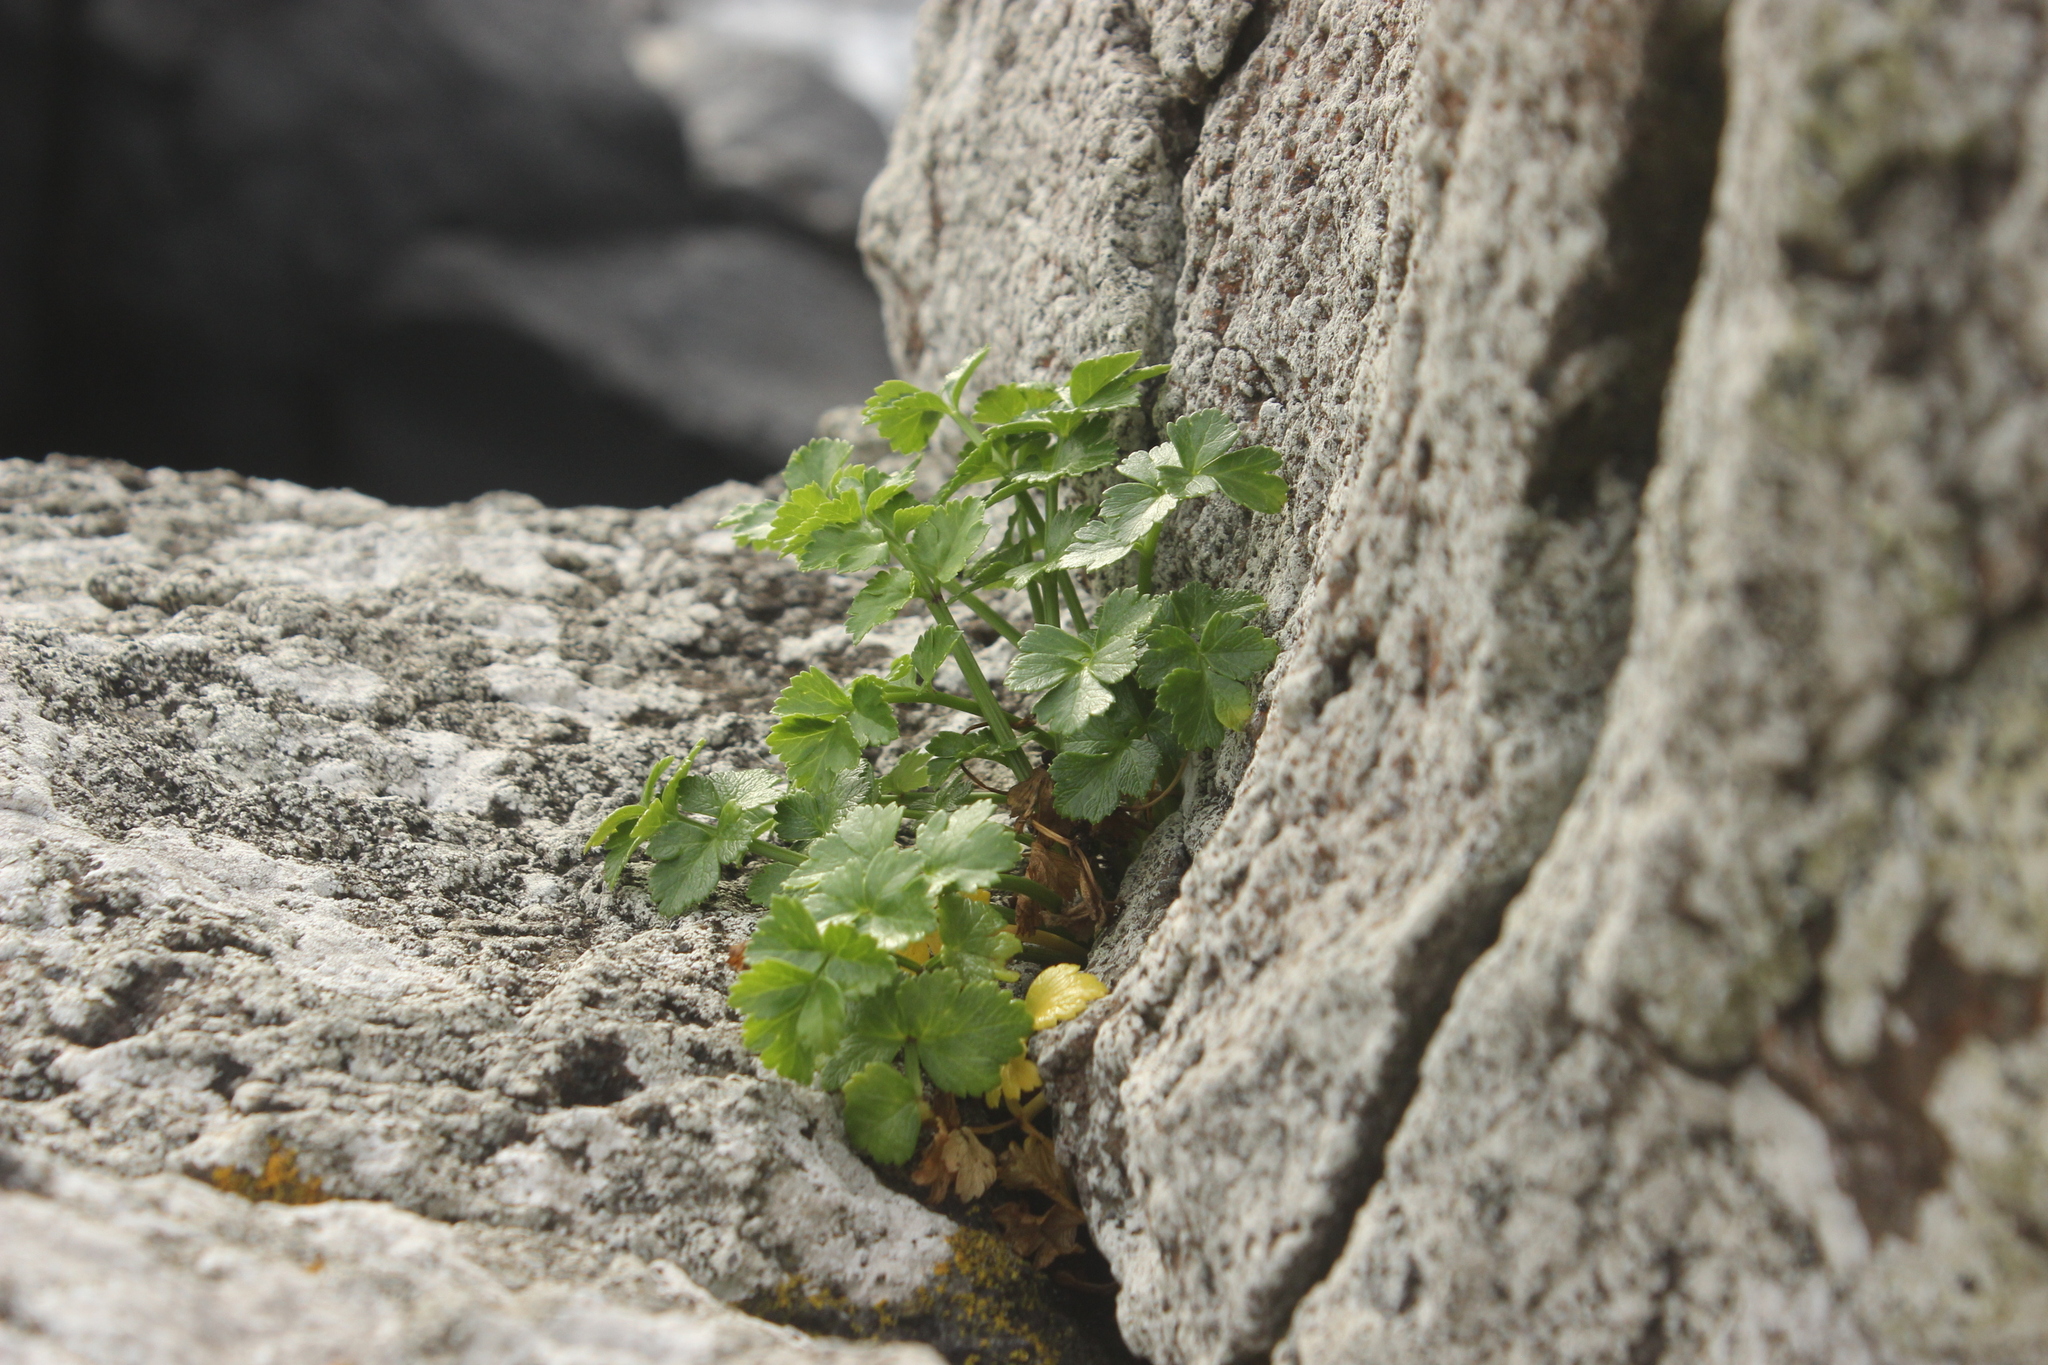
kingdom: Plantae
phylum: Tracheophyta
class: Magnoliopsida
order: Apiales
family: Apiaceae
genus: Apium
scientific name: Apium prostratum
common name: Prostrate marshwort
